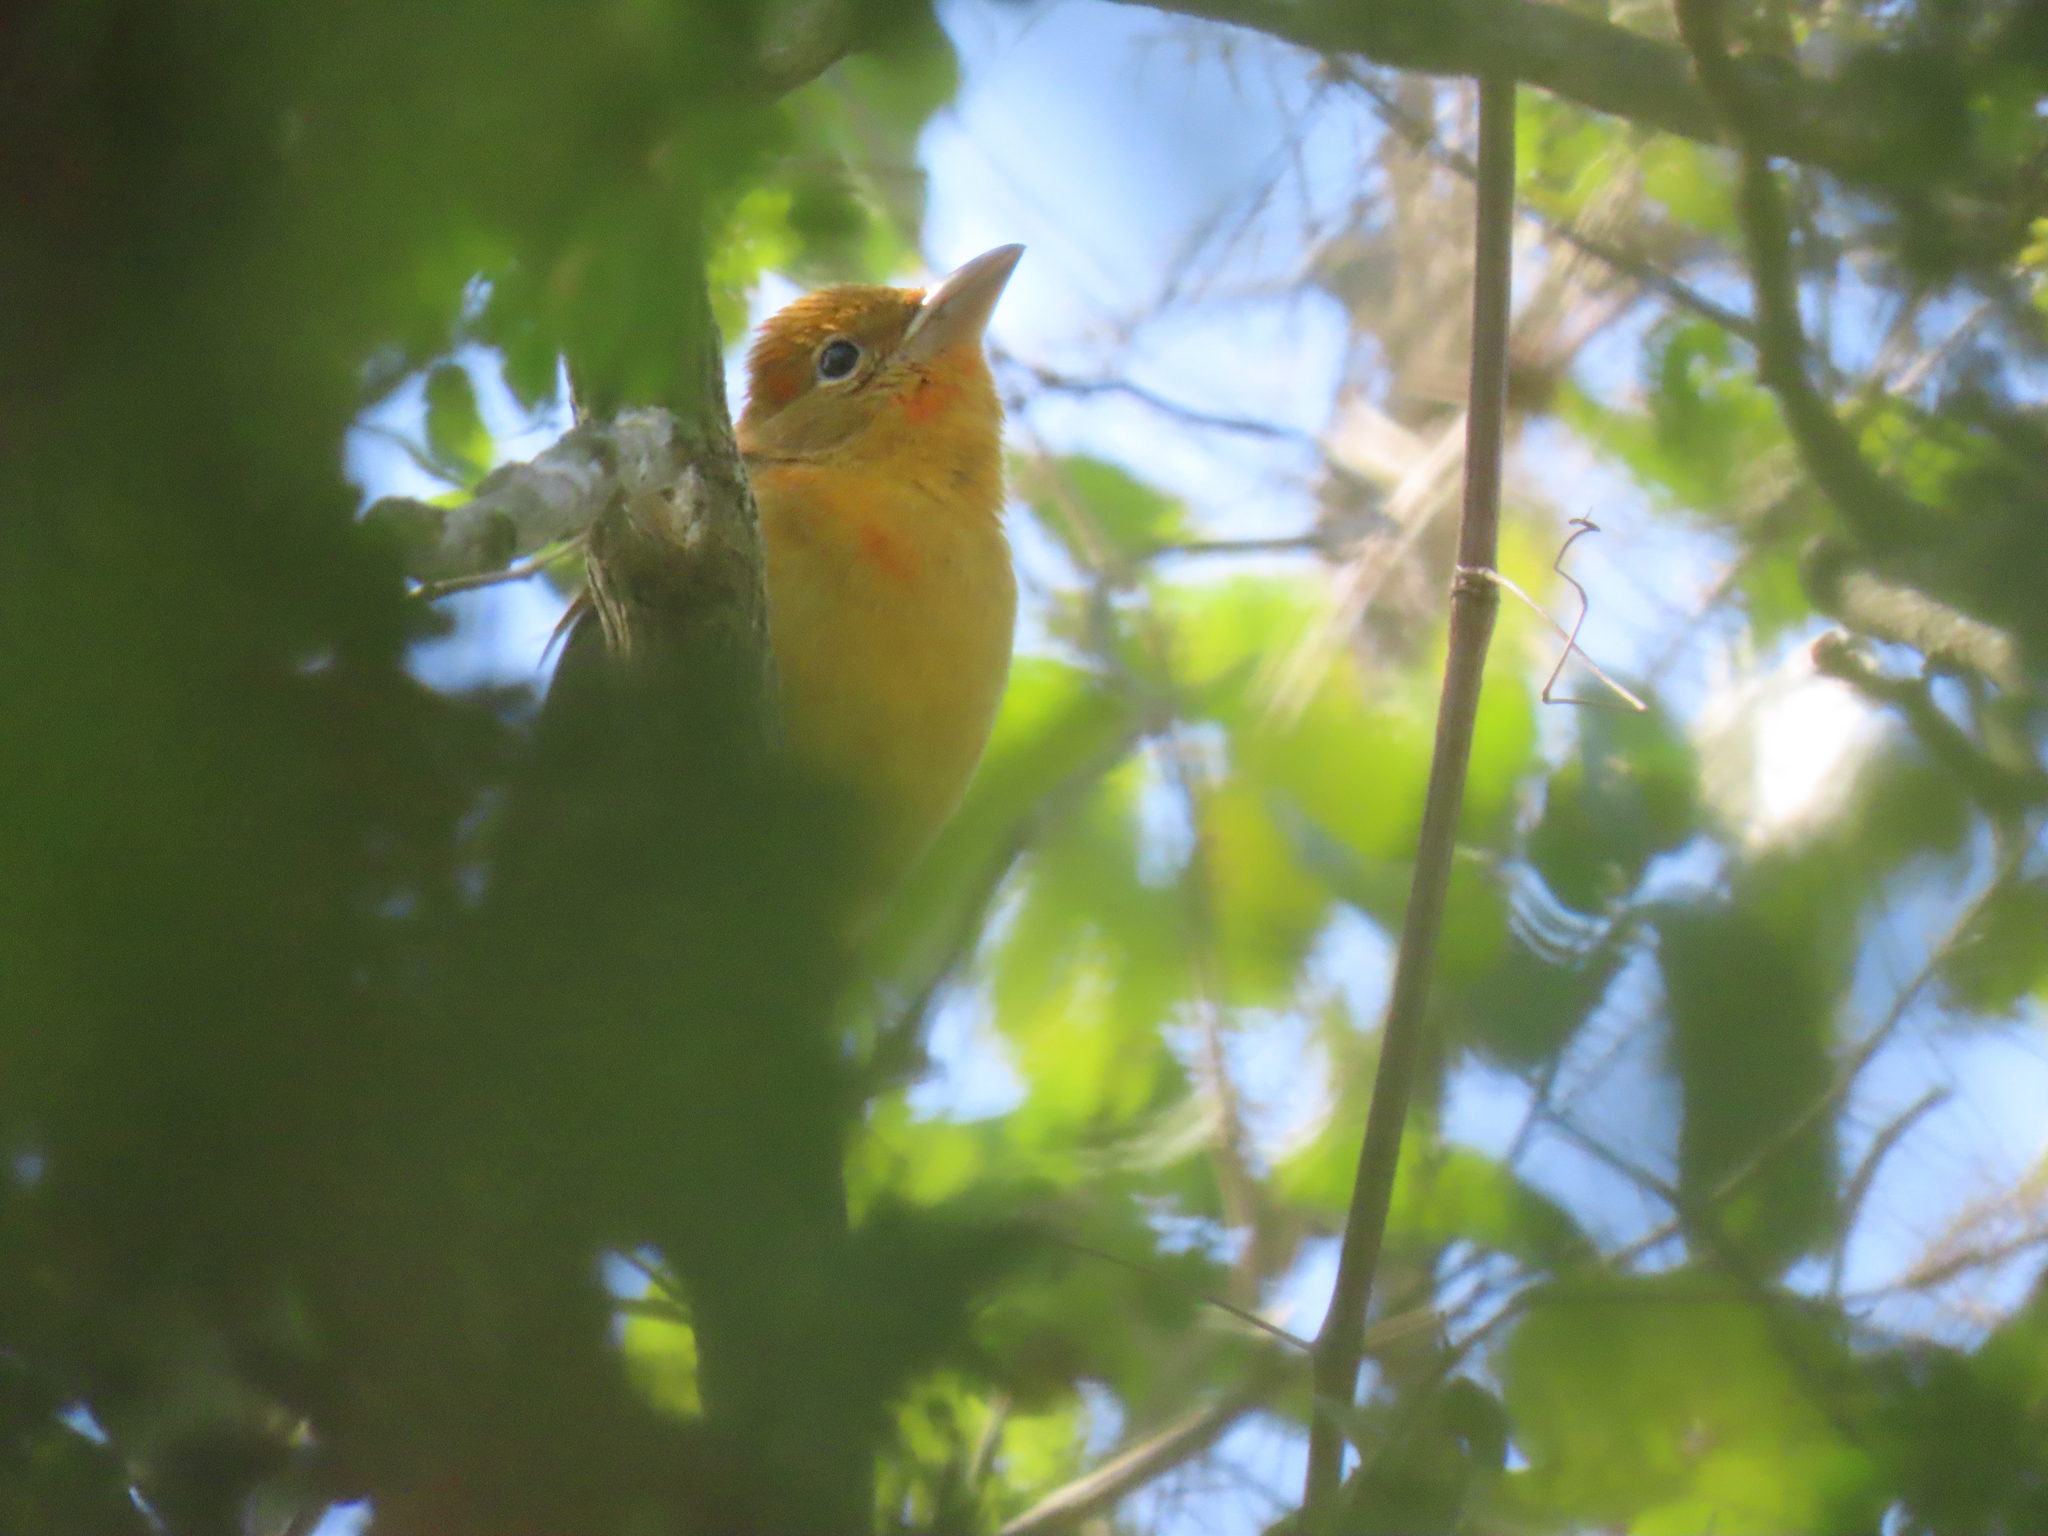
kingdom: Animalia
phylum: Chordata
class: Aves
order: Passeriformes
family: Cardinalidae
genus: Piranga
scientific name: Piranga rubra
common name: Summer tanager
